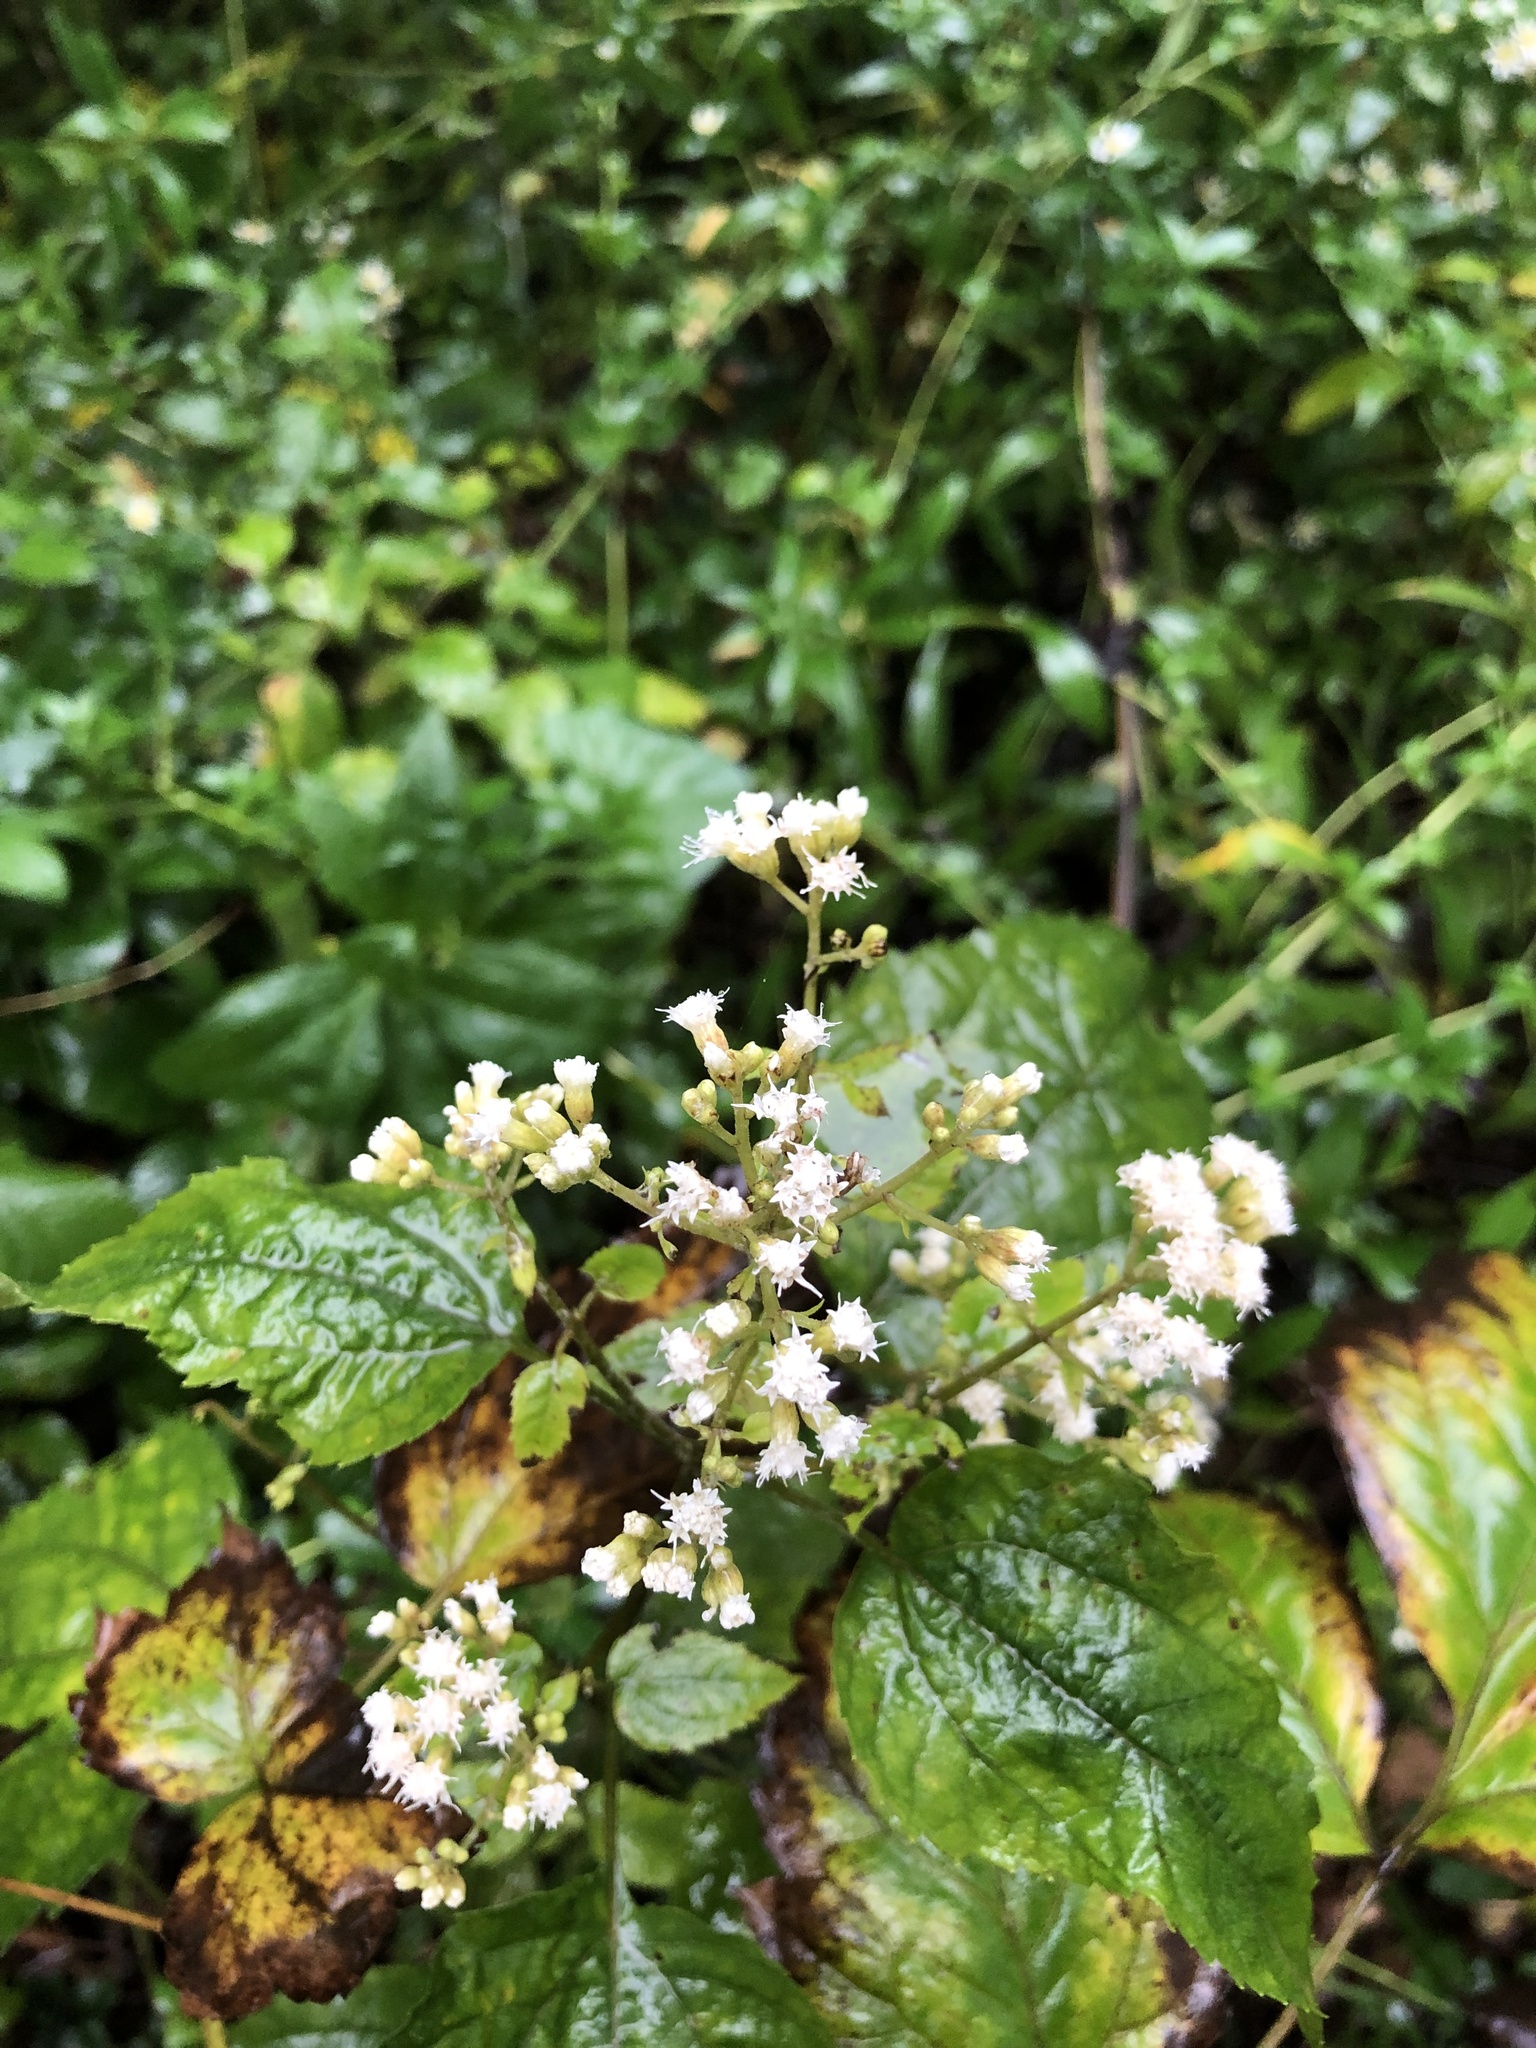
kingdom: Plantae
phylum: Tracheophyta
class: Magnoliopsida
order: Asterales
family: Asteraceae
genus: Ageratina
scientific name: Ageratina altissima
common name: White snakeroot
